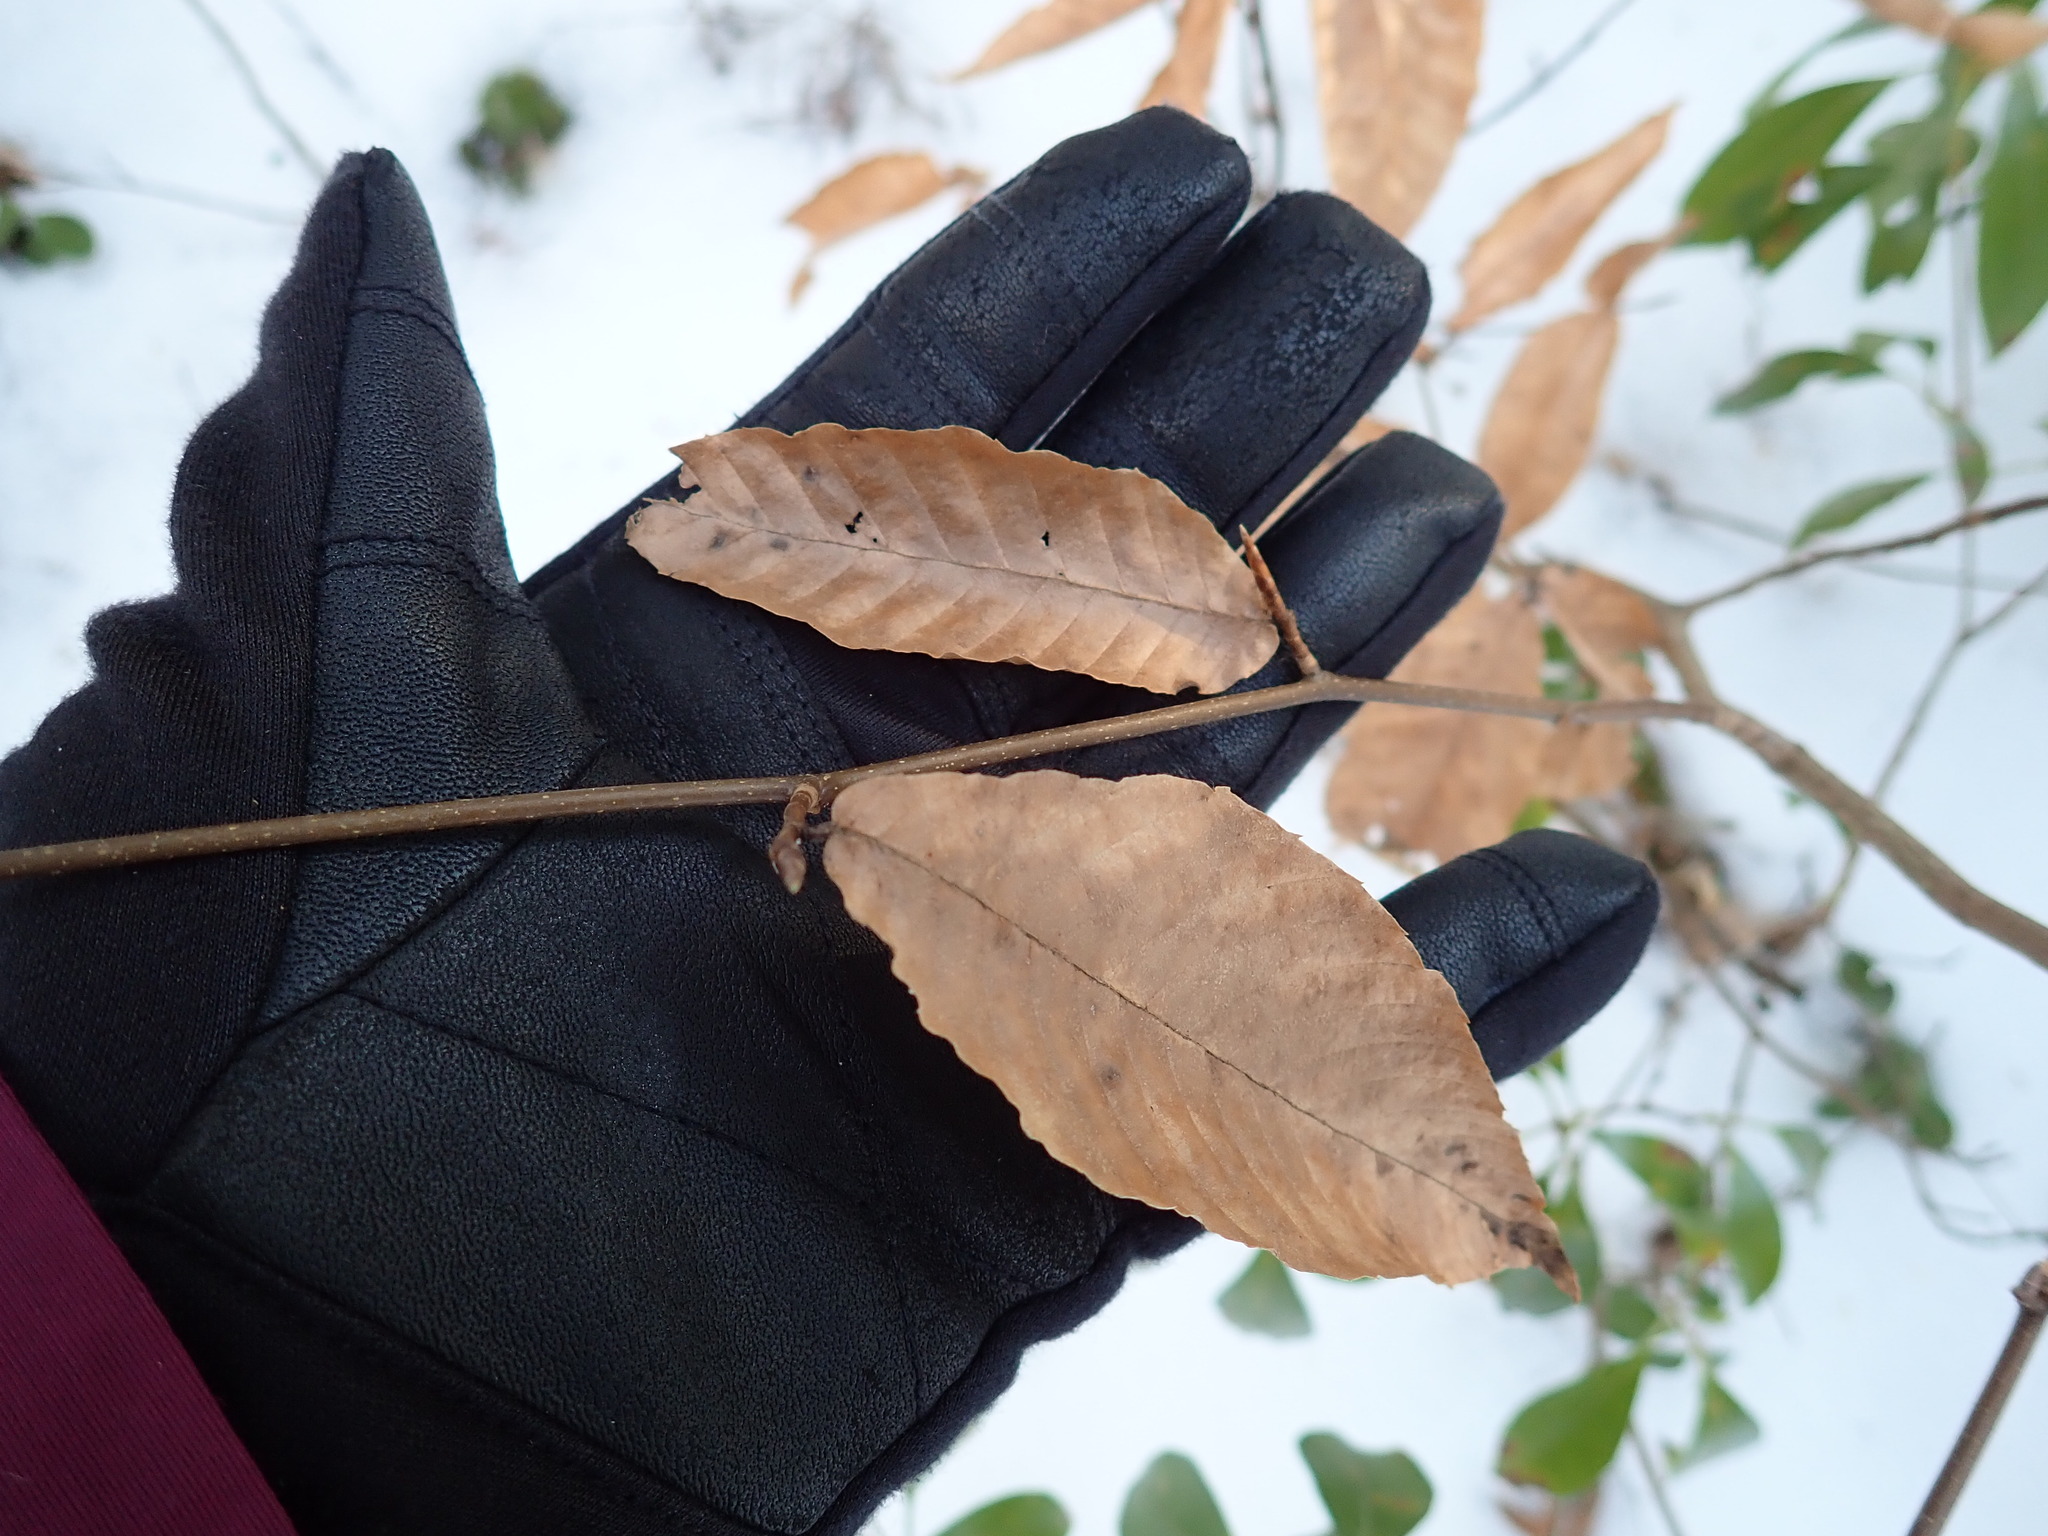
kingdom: Plantae
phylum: Tracheophyta
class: Magnoliopsida
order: Fagales
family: Fagaceae
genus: Fagus
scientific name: Fagus grandifolia
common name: American beech
